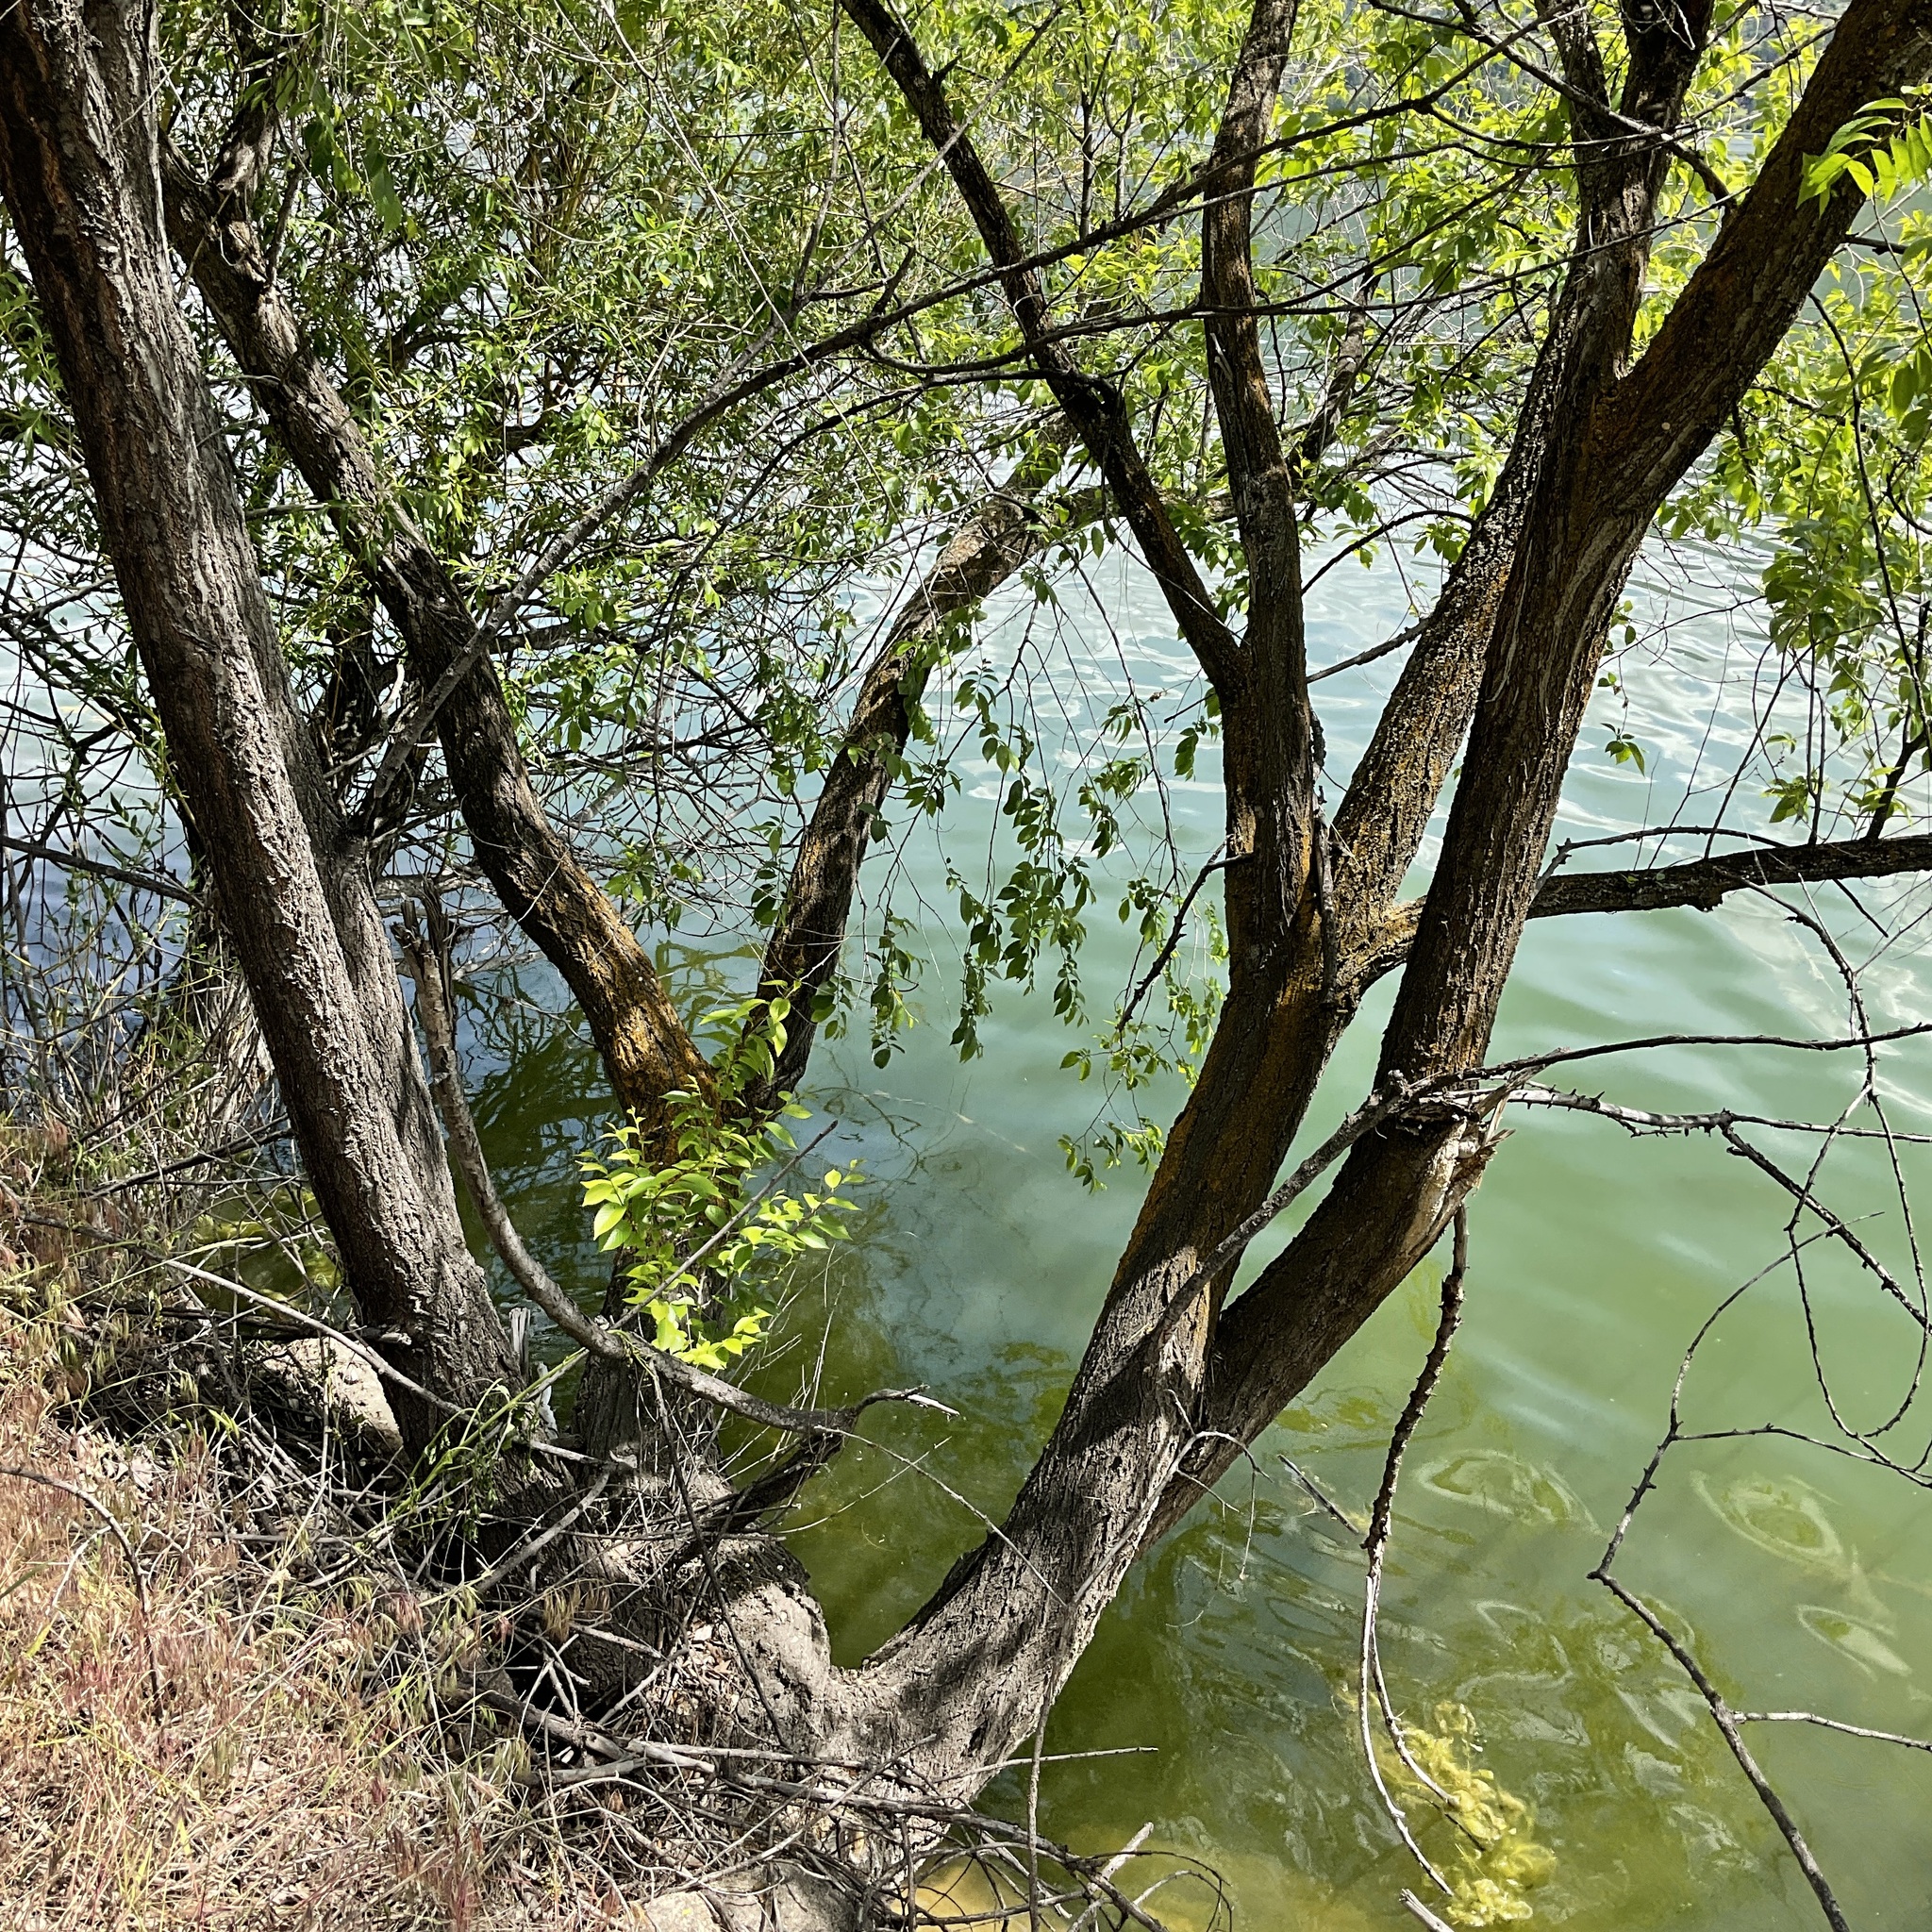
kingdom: Plantae
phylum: Tracheophyta
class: Magnoliopsida
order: Rosales
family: Ulmaceae
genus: Ulmus
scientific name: Ulmus pumila
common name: Siberian elm
